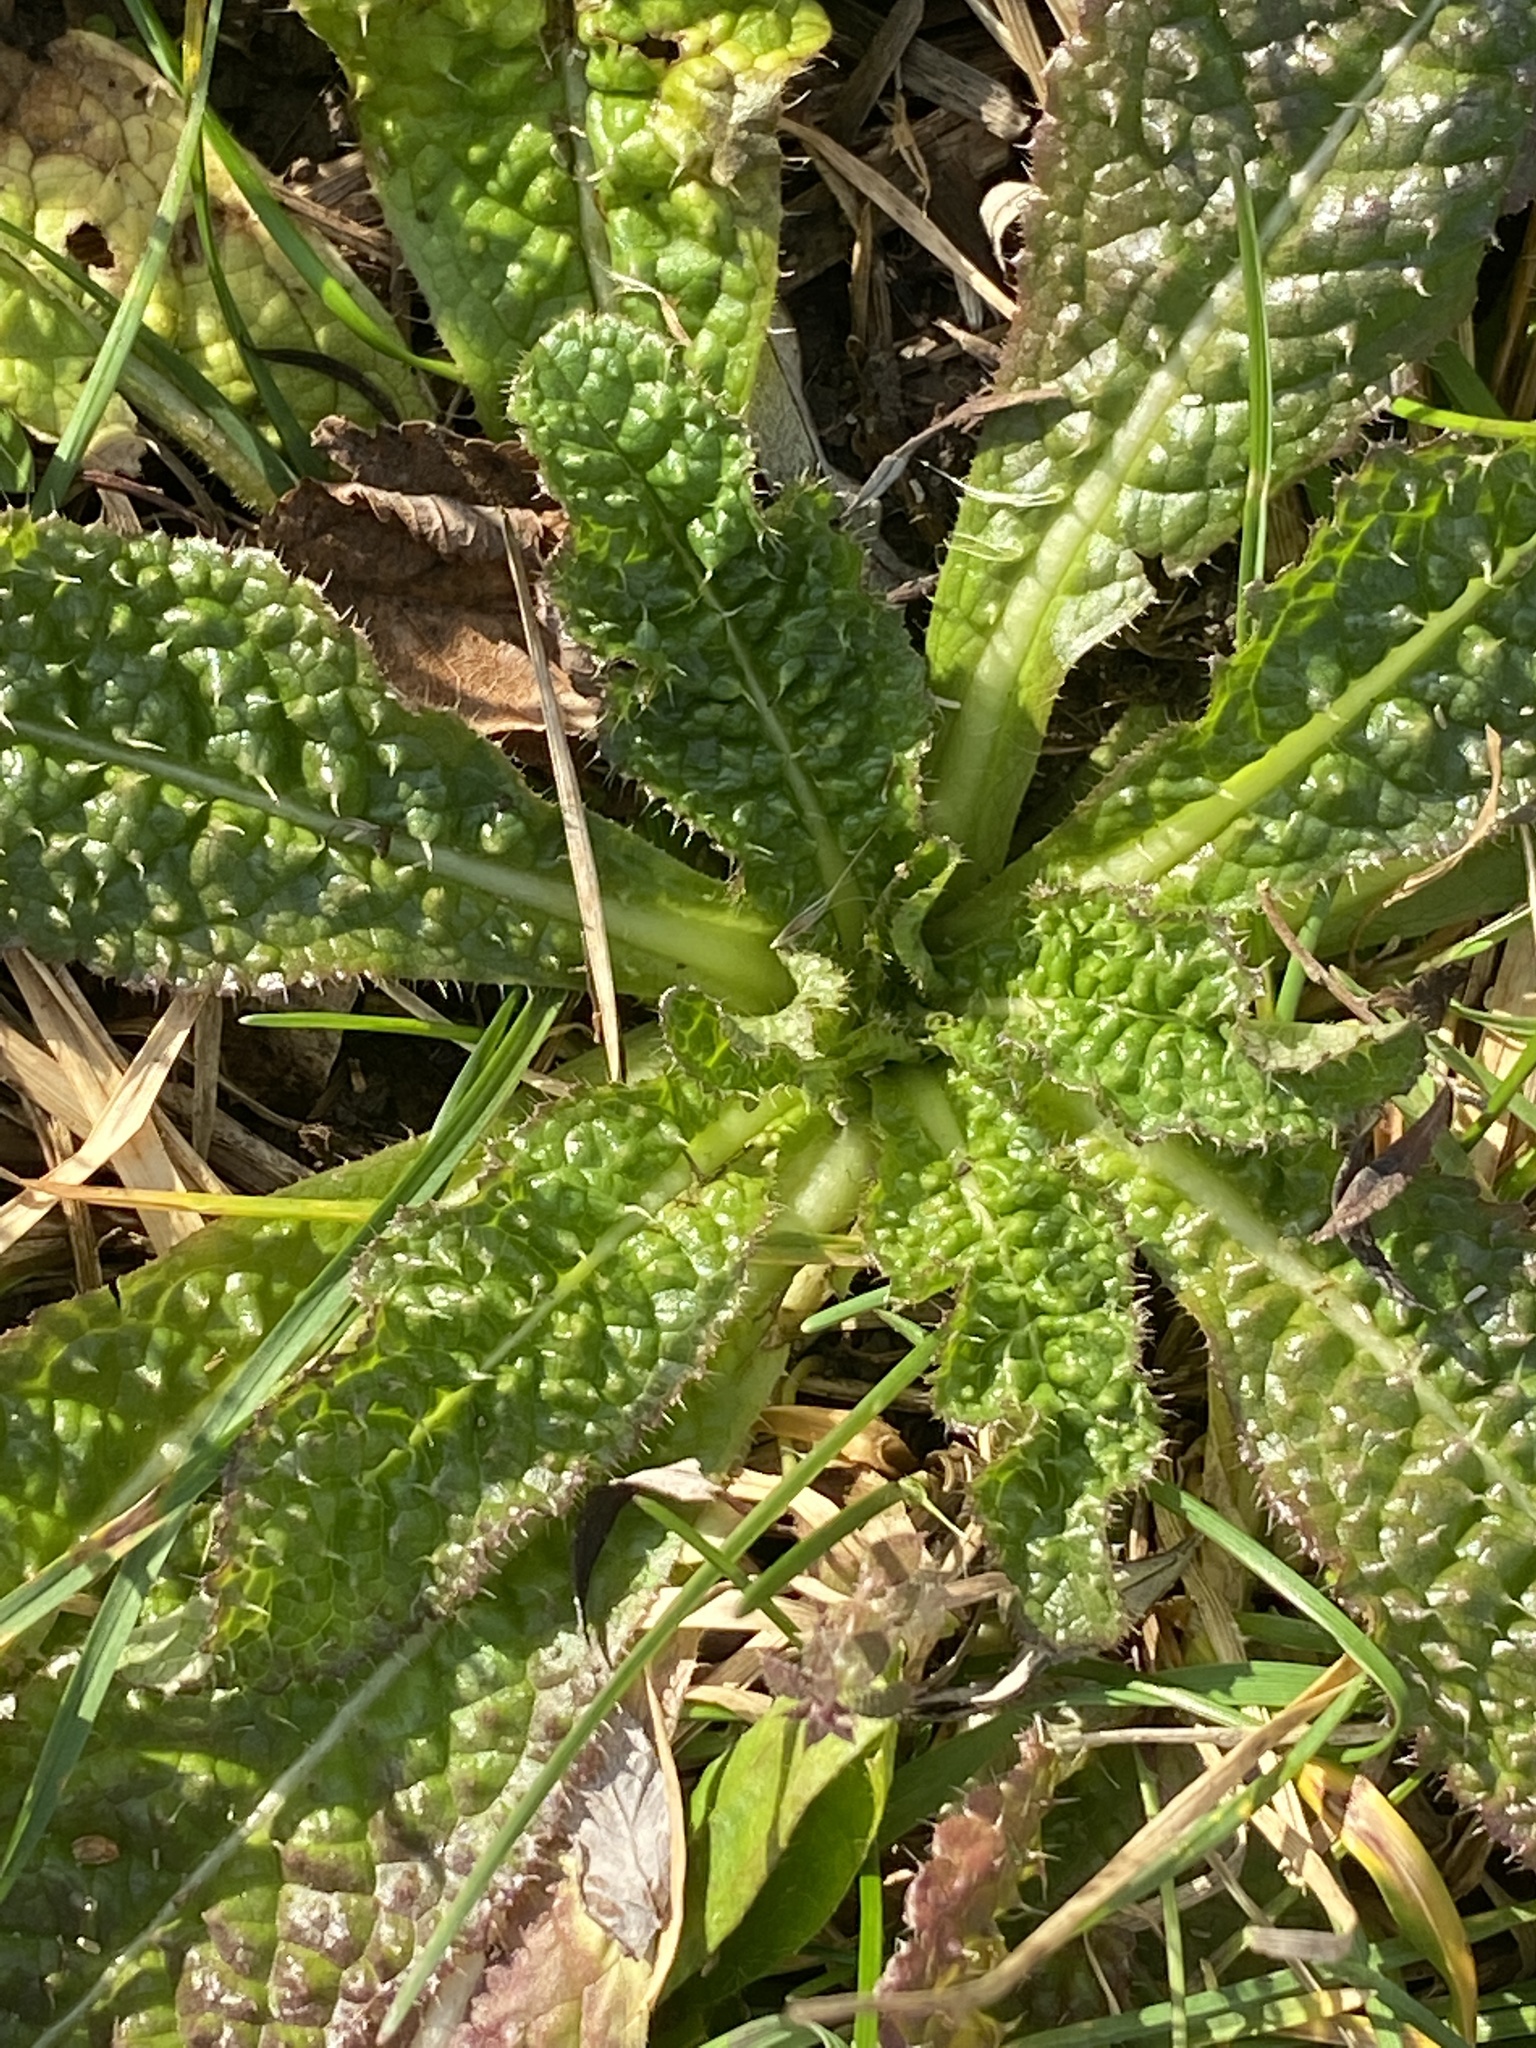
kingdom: Plantae
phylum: Tracheophyta
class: Magnoliopsida
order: Dipsacales
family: Caprifoliaceae
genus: Dipsacus
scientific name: Dipsacus fullonum
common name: Teasel
